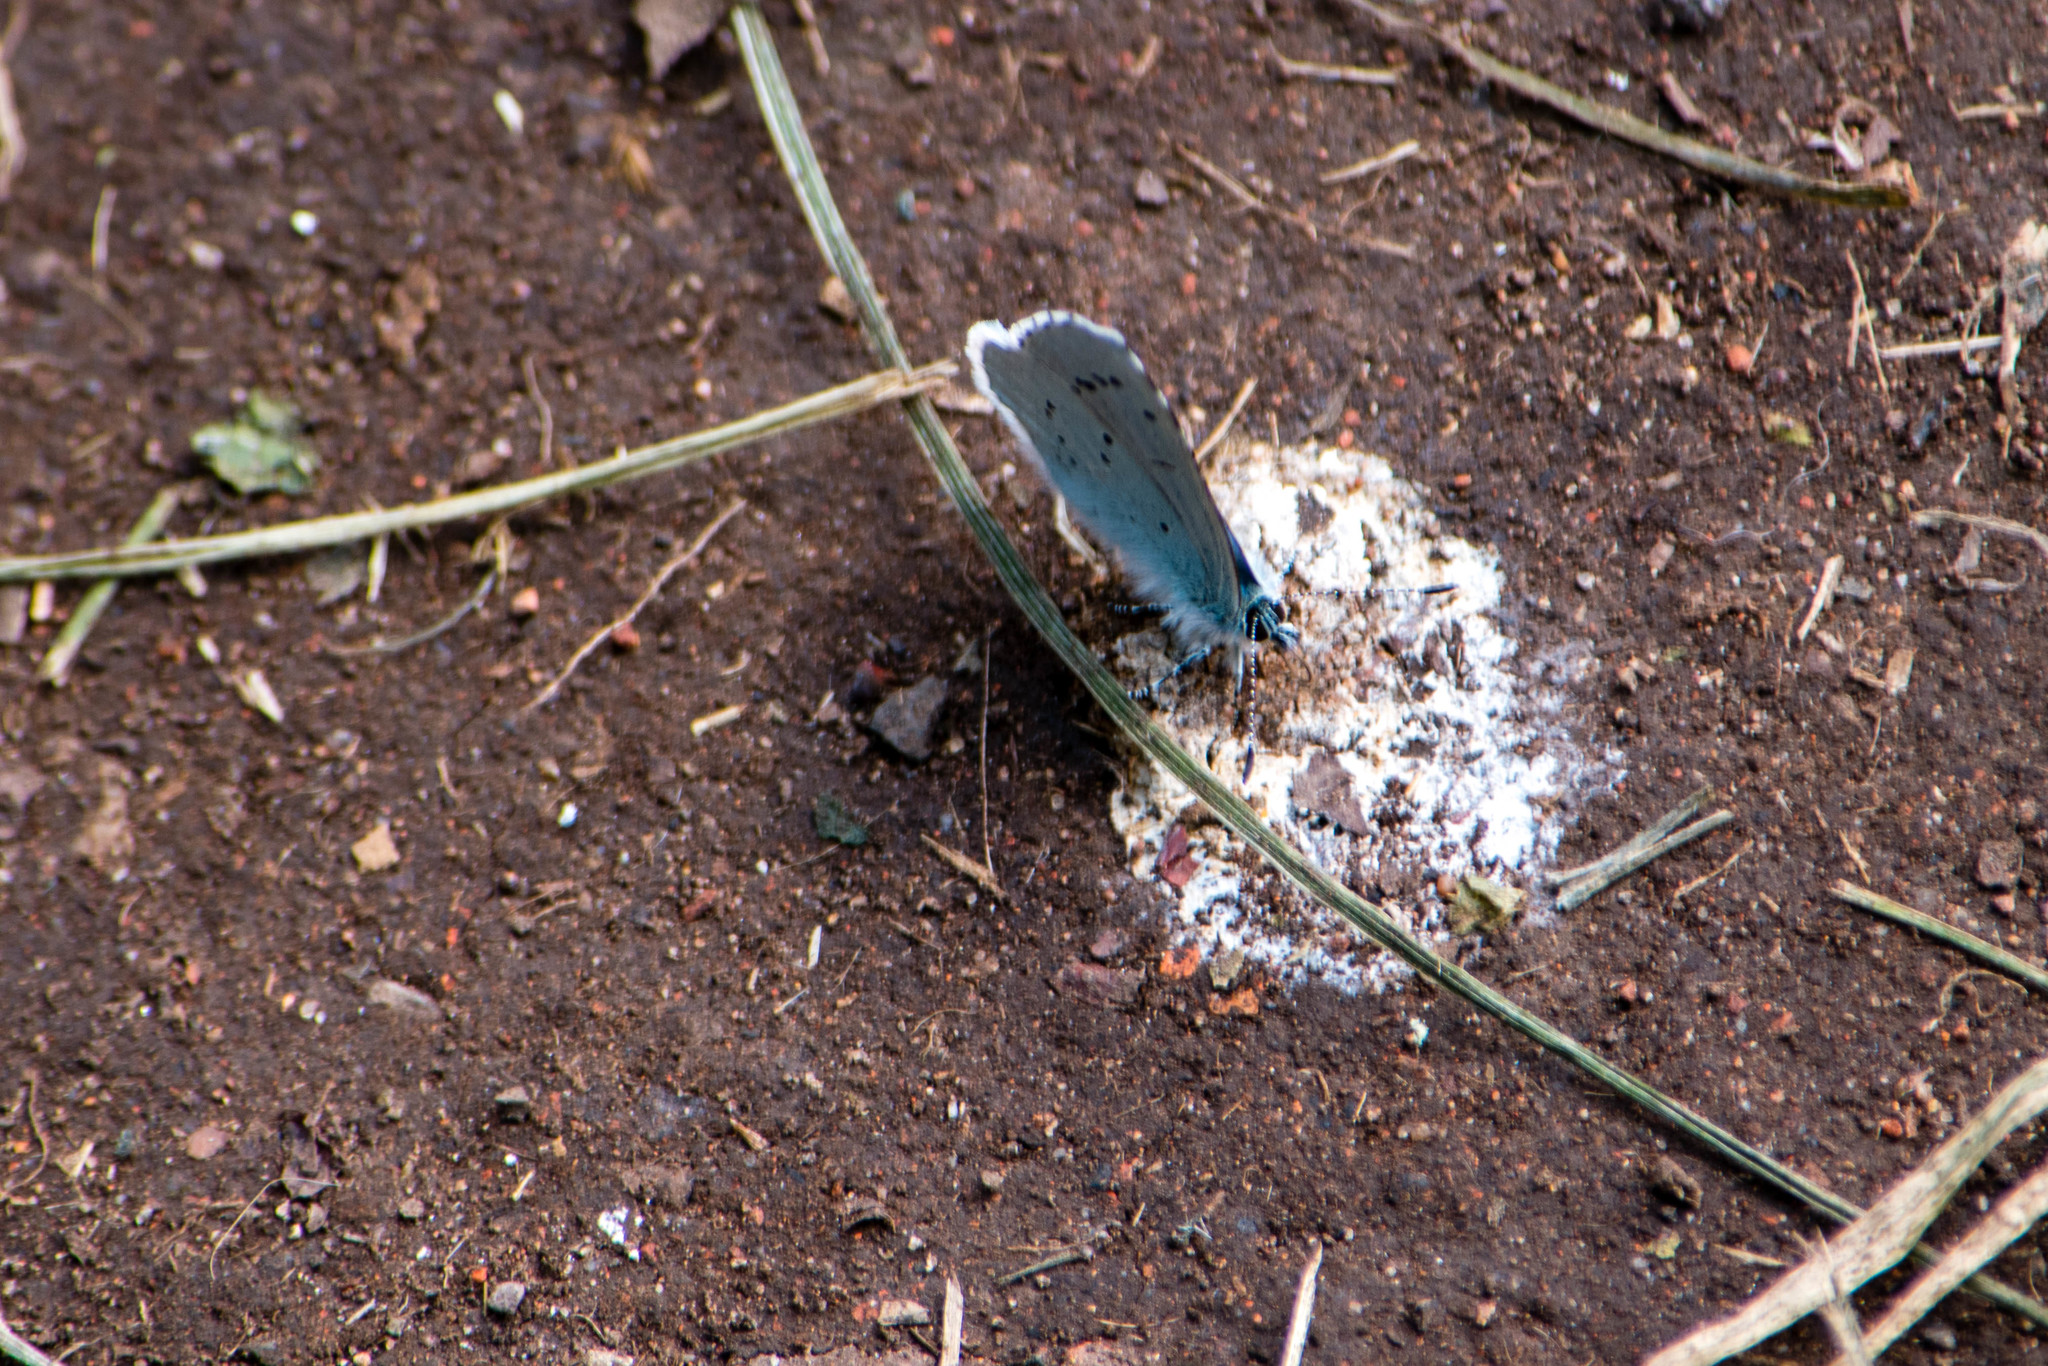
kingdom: Animalia
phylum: Arthropoda
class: Insecta
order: Lepidoptera
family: Lycaenidae
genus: Celastrina
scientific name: Celastrina argiolus
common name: Holly blue
